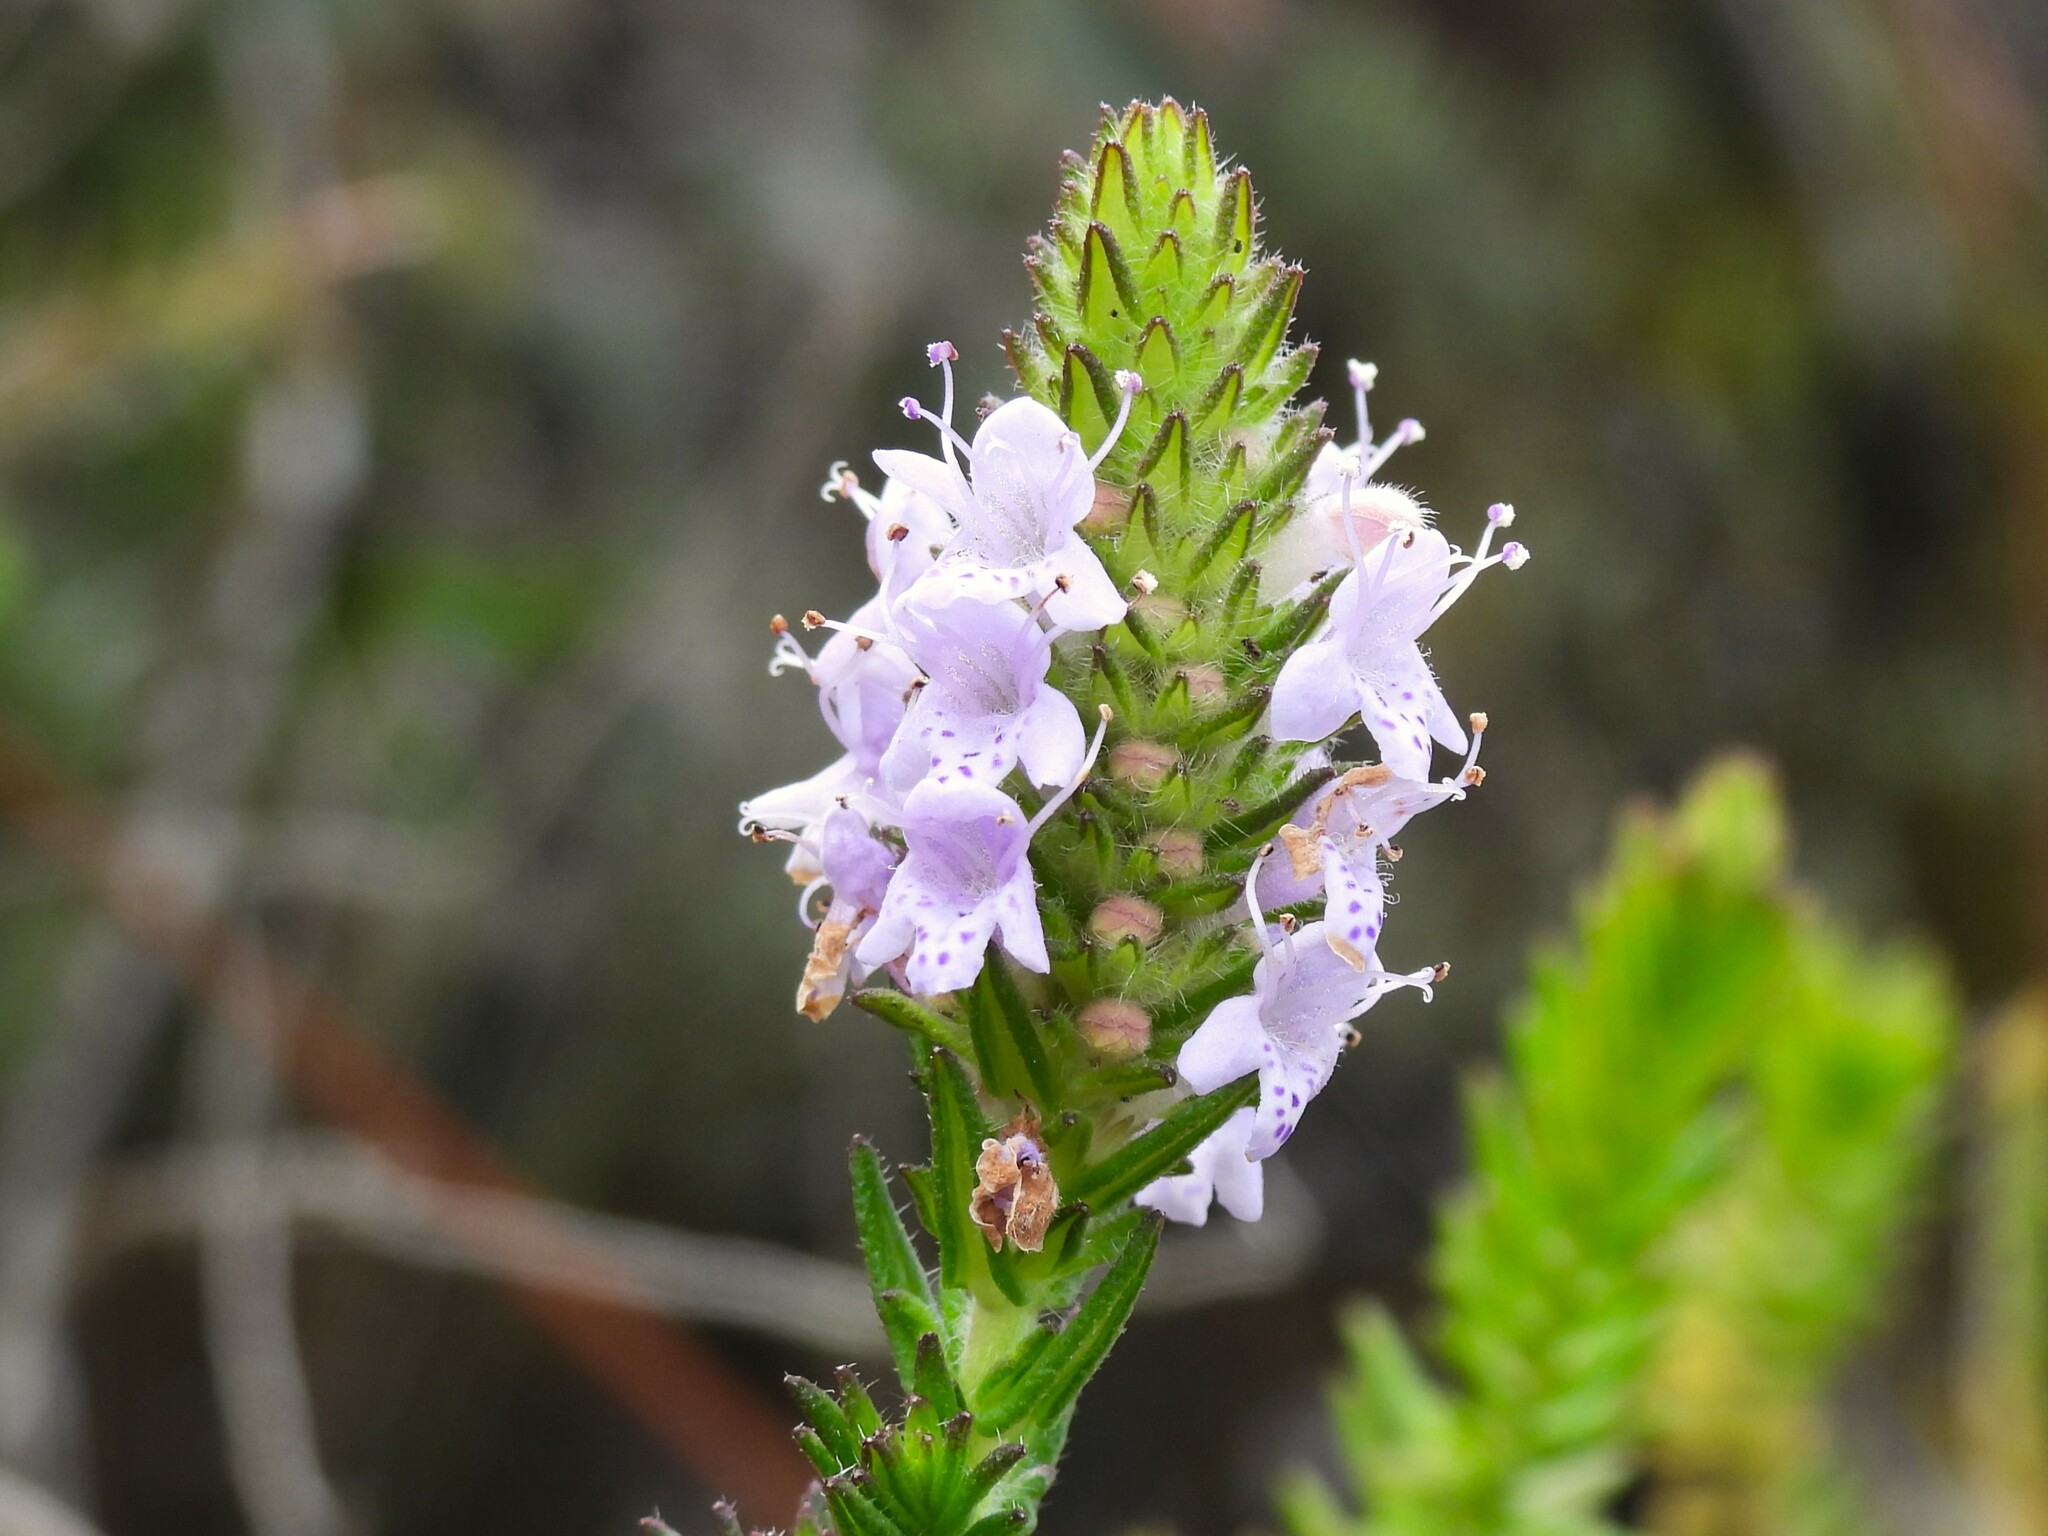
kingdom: Plantae
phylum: Tracheophyta
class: Magnoliopsida
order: Lamiales
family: Lamiaceae
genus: Piloblephis
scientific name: Piloblephis rigida
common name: Wild pennyroyal
